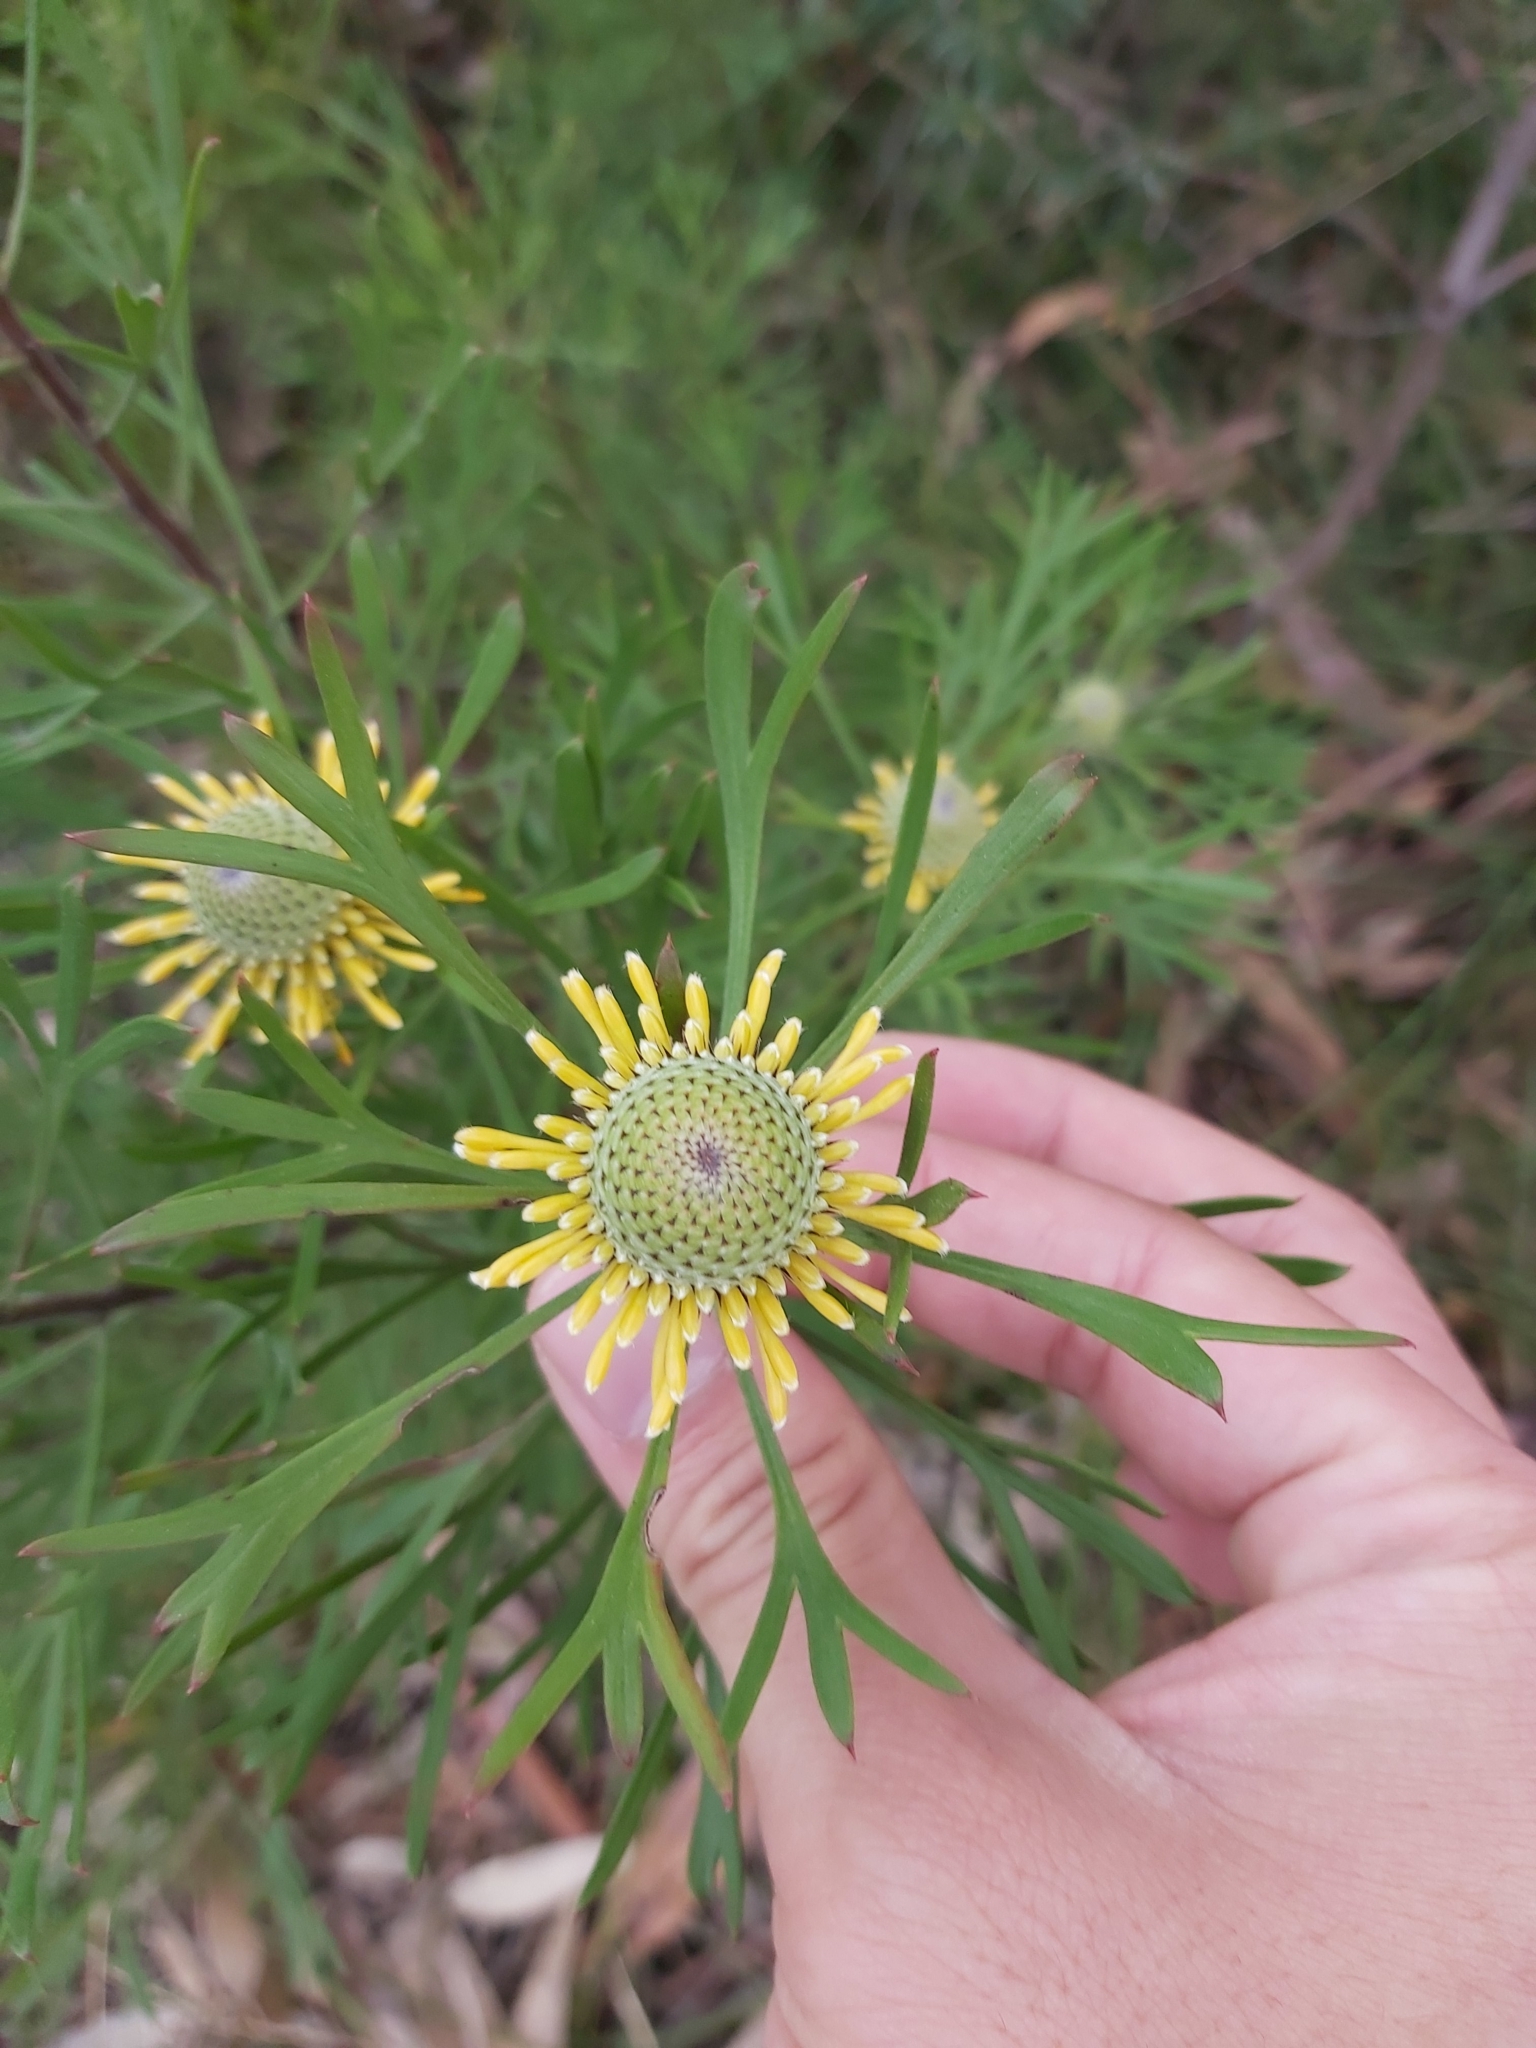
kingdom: Plantae
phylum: Tracheophyta
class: Magnoliopsida
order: Proteales
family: Proteaceae
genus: Isopogon
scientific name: Isopogon anemonifolius
